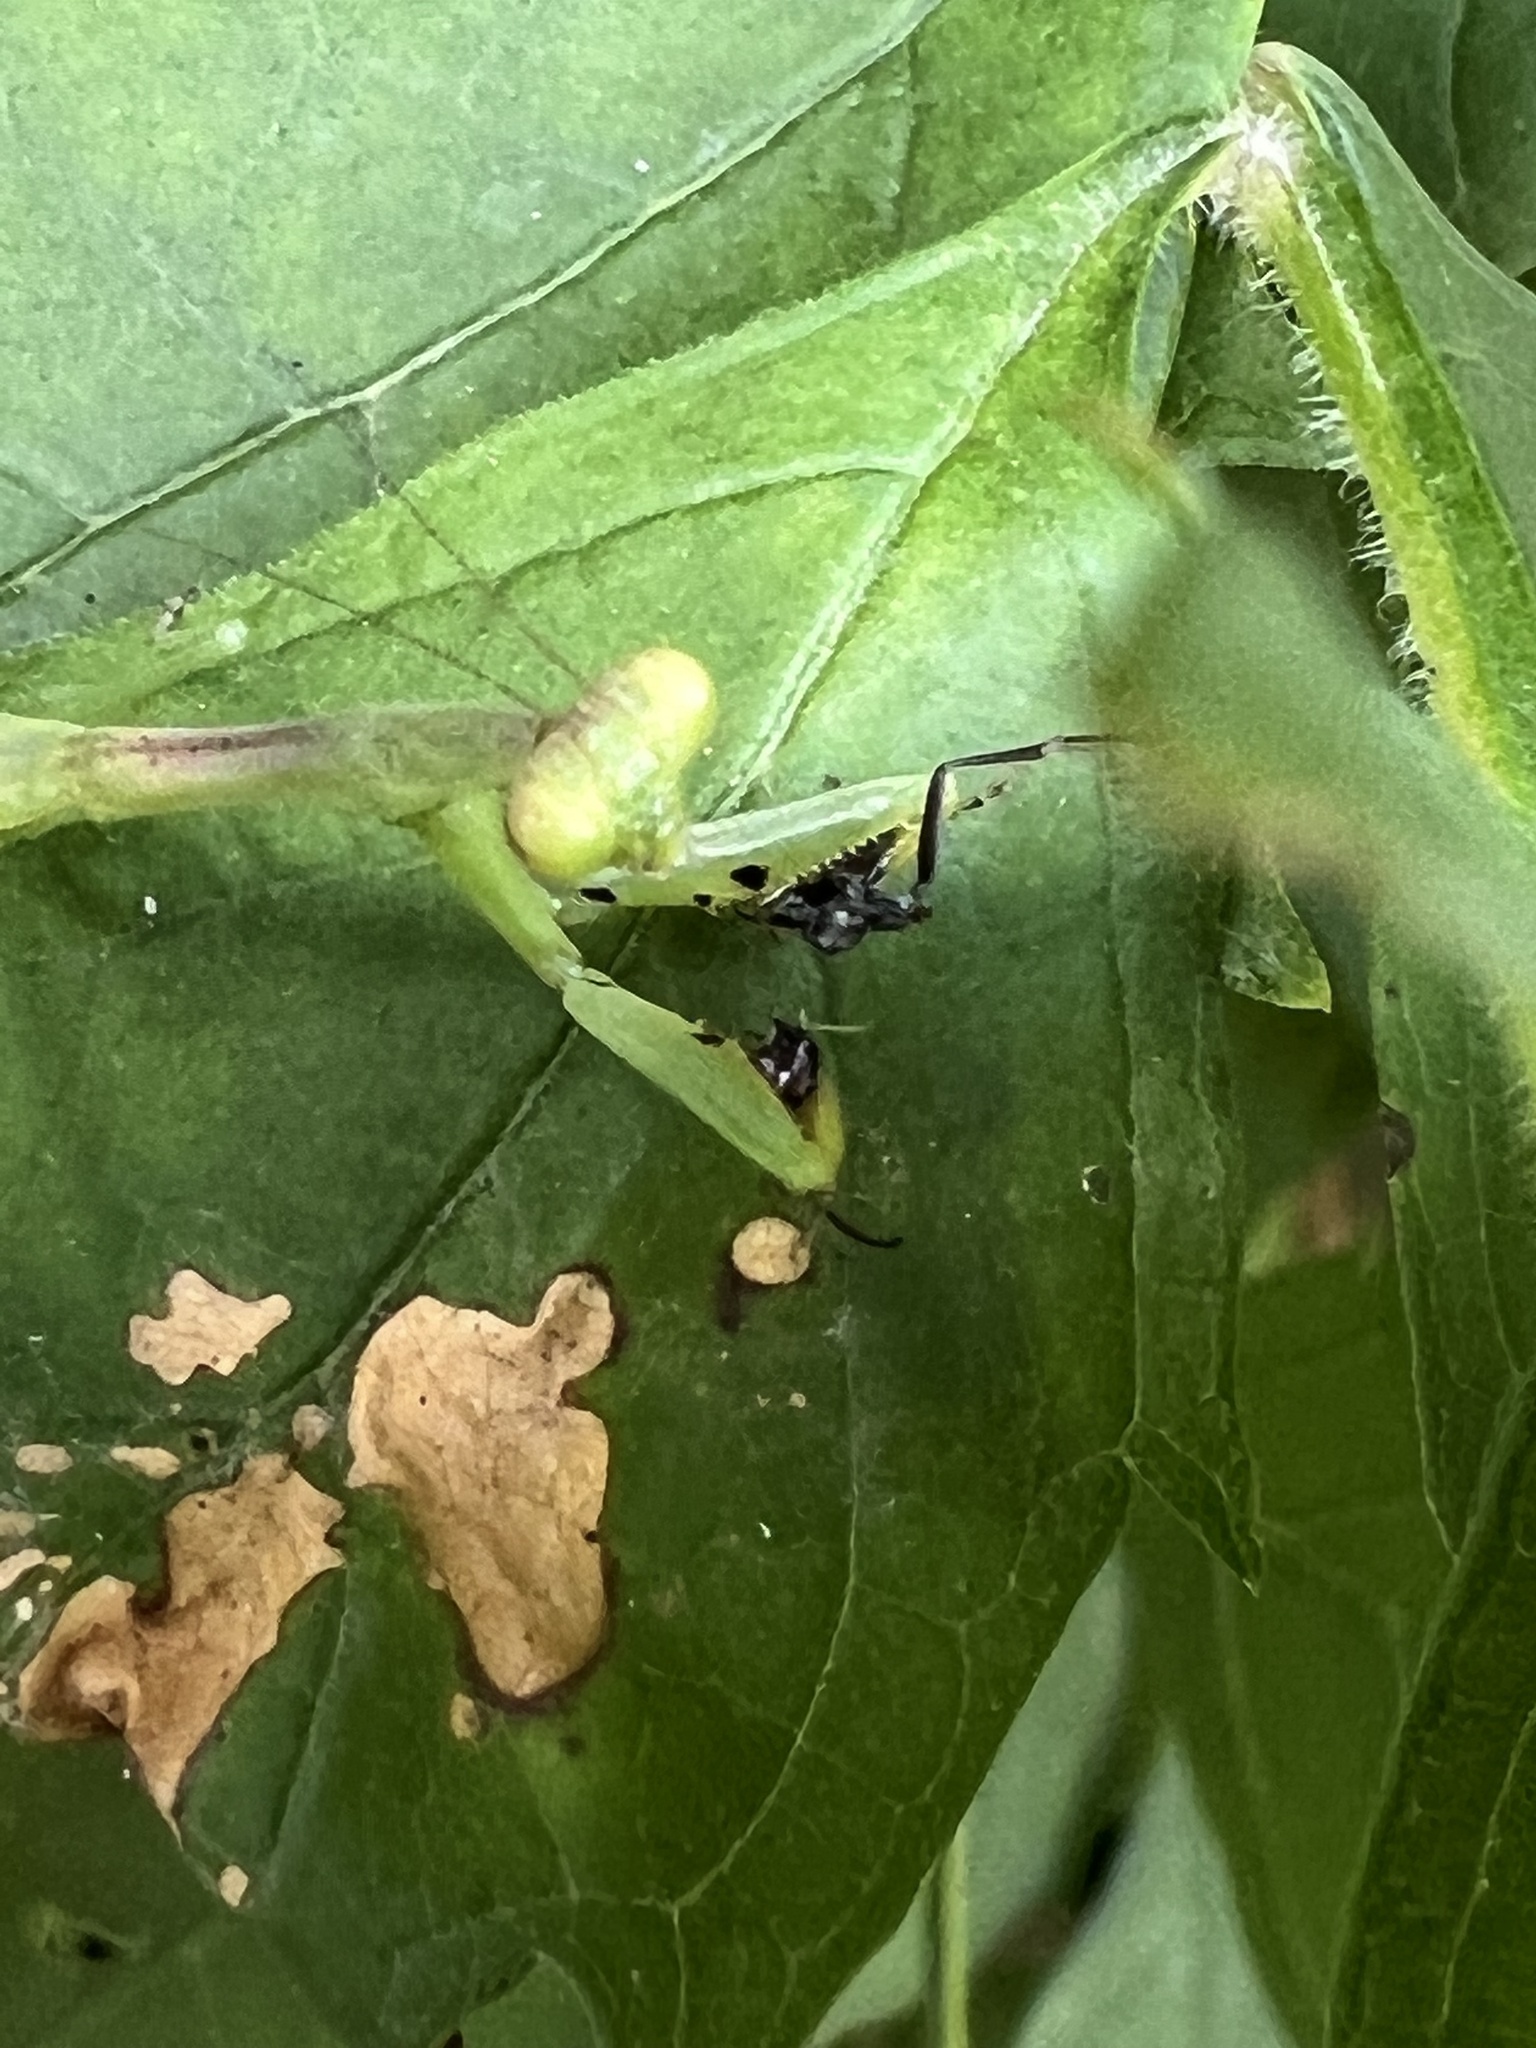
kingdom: Animalia
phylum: Arthropoda
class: Insecta
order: Mantodea
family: Mantidae
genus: Stagmomantis
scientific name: Stagmomantis carolina
